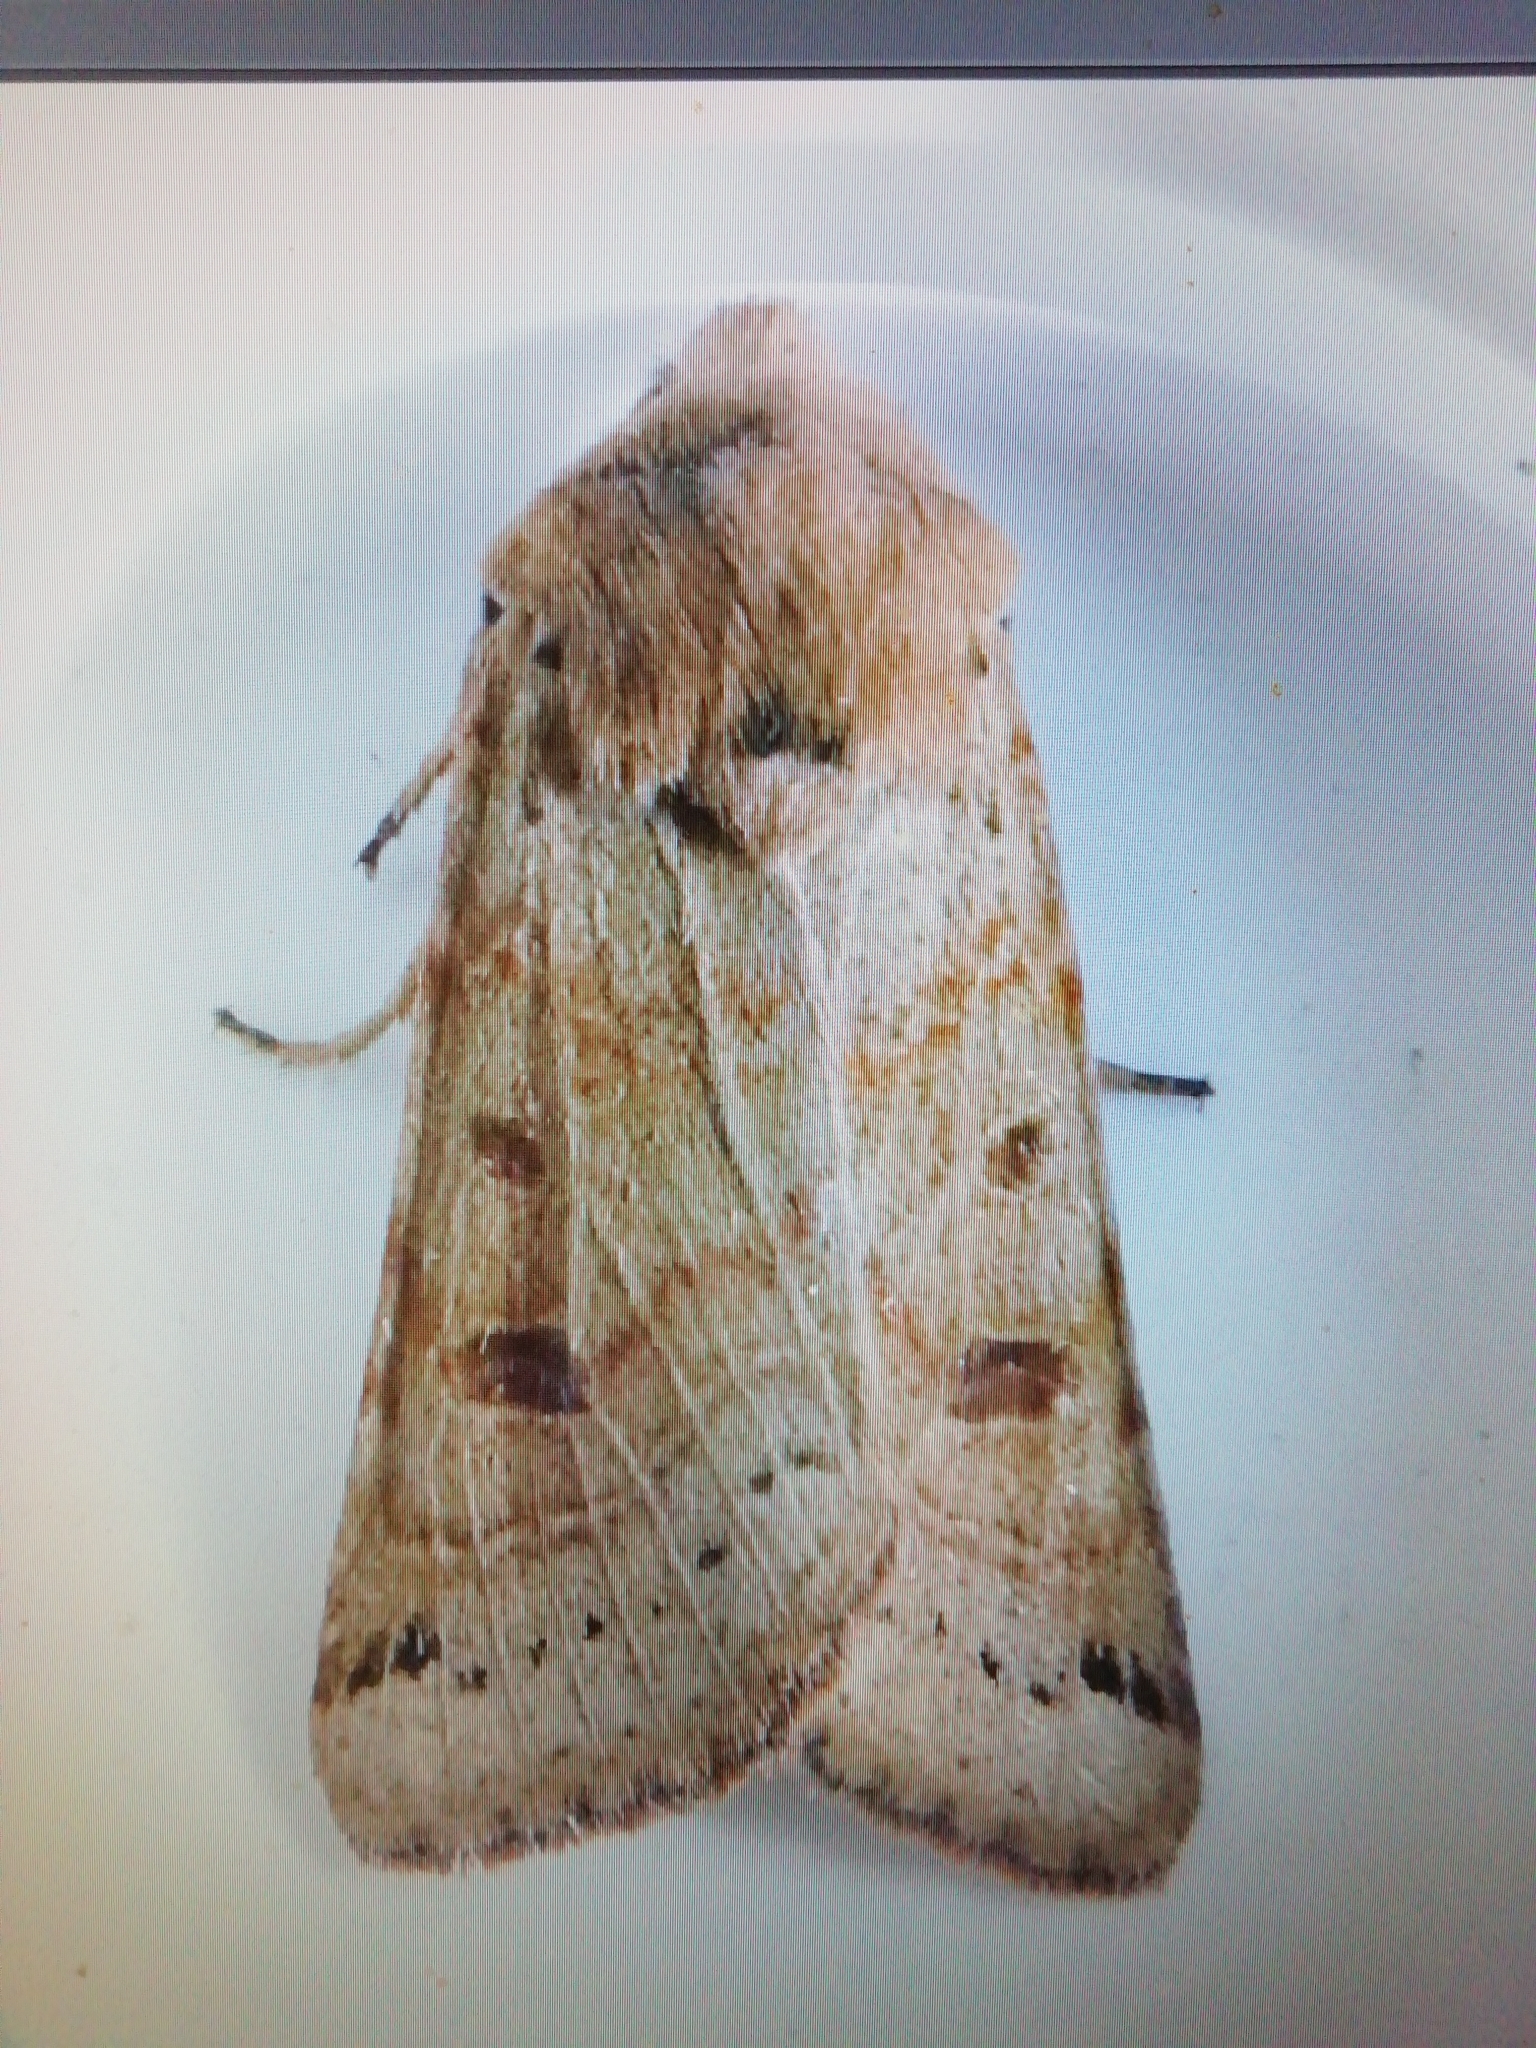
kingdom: Animalia
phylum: Arthropoda
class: Insecta
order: Lepidoptera
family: Noctuidae
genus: Agrochola
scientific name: Agrochola lunosa
